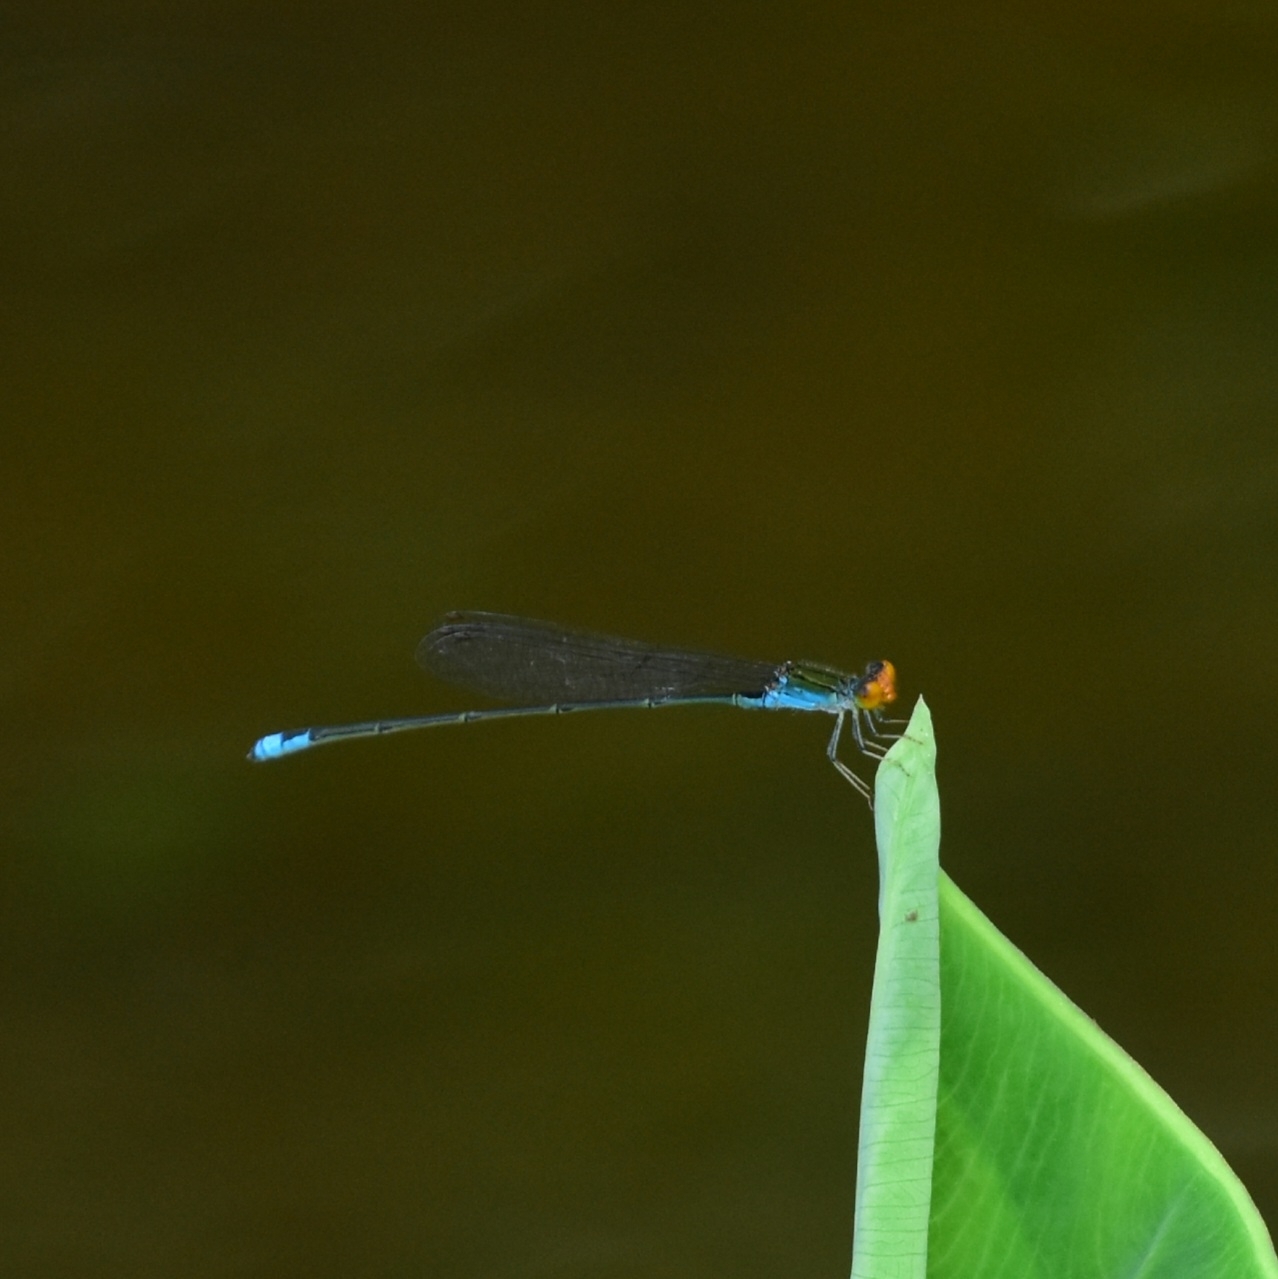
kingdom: Animalia
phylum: Arthropoda
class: Insecta
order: Odonata
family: Coenagrionidae
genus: Pseudagrion
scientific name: Pseudagrion rubriceps
